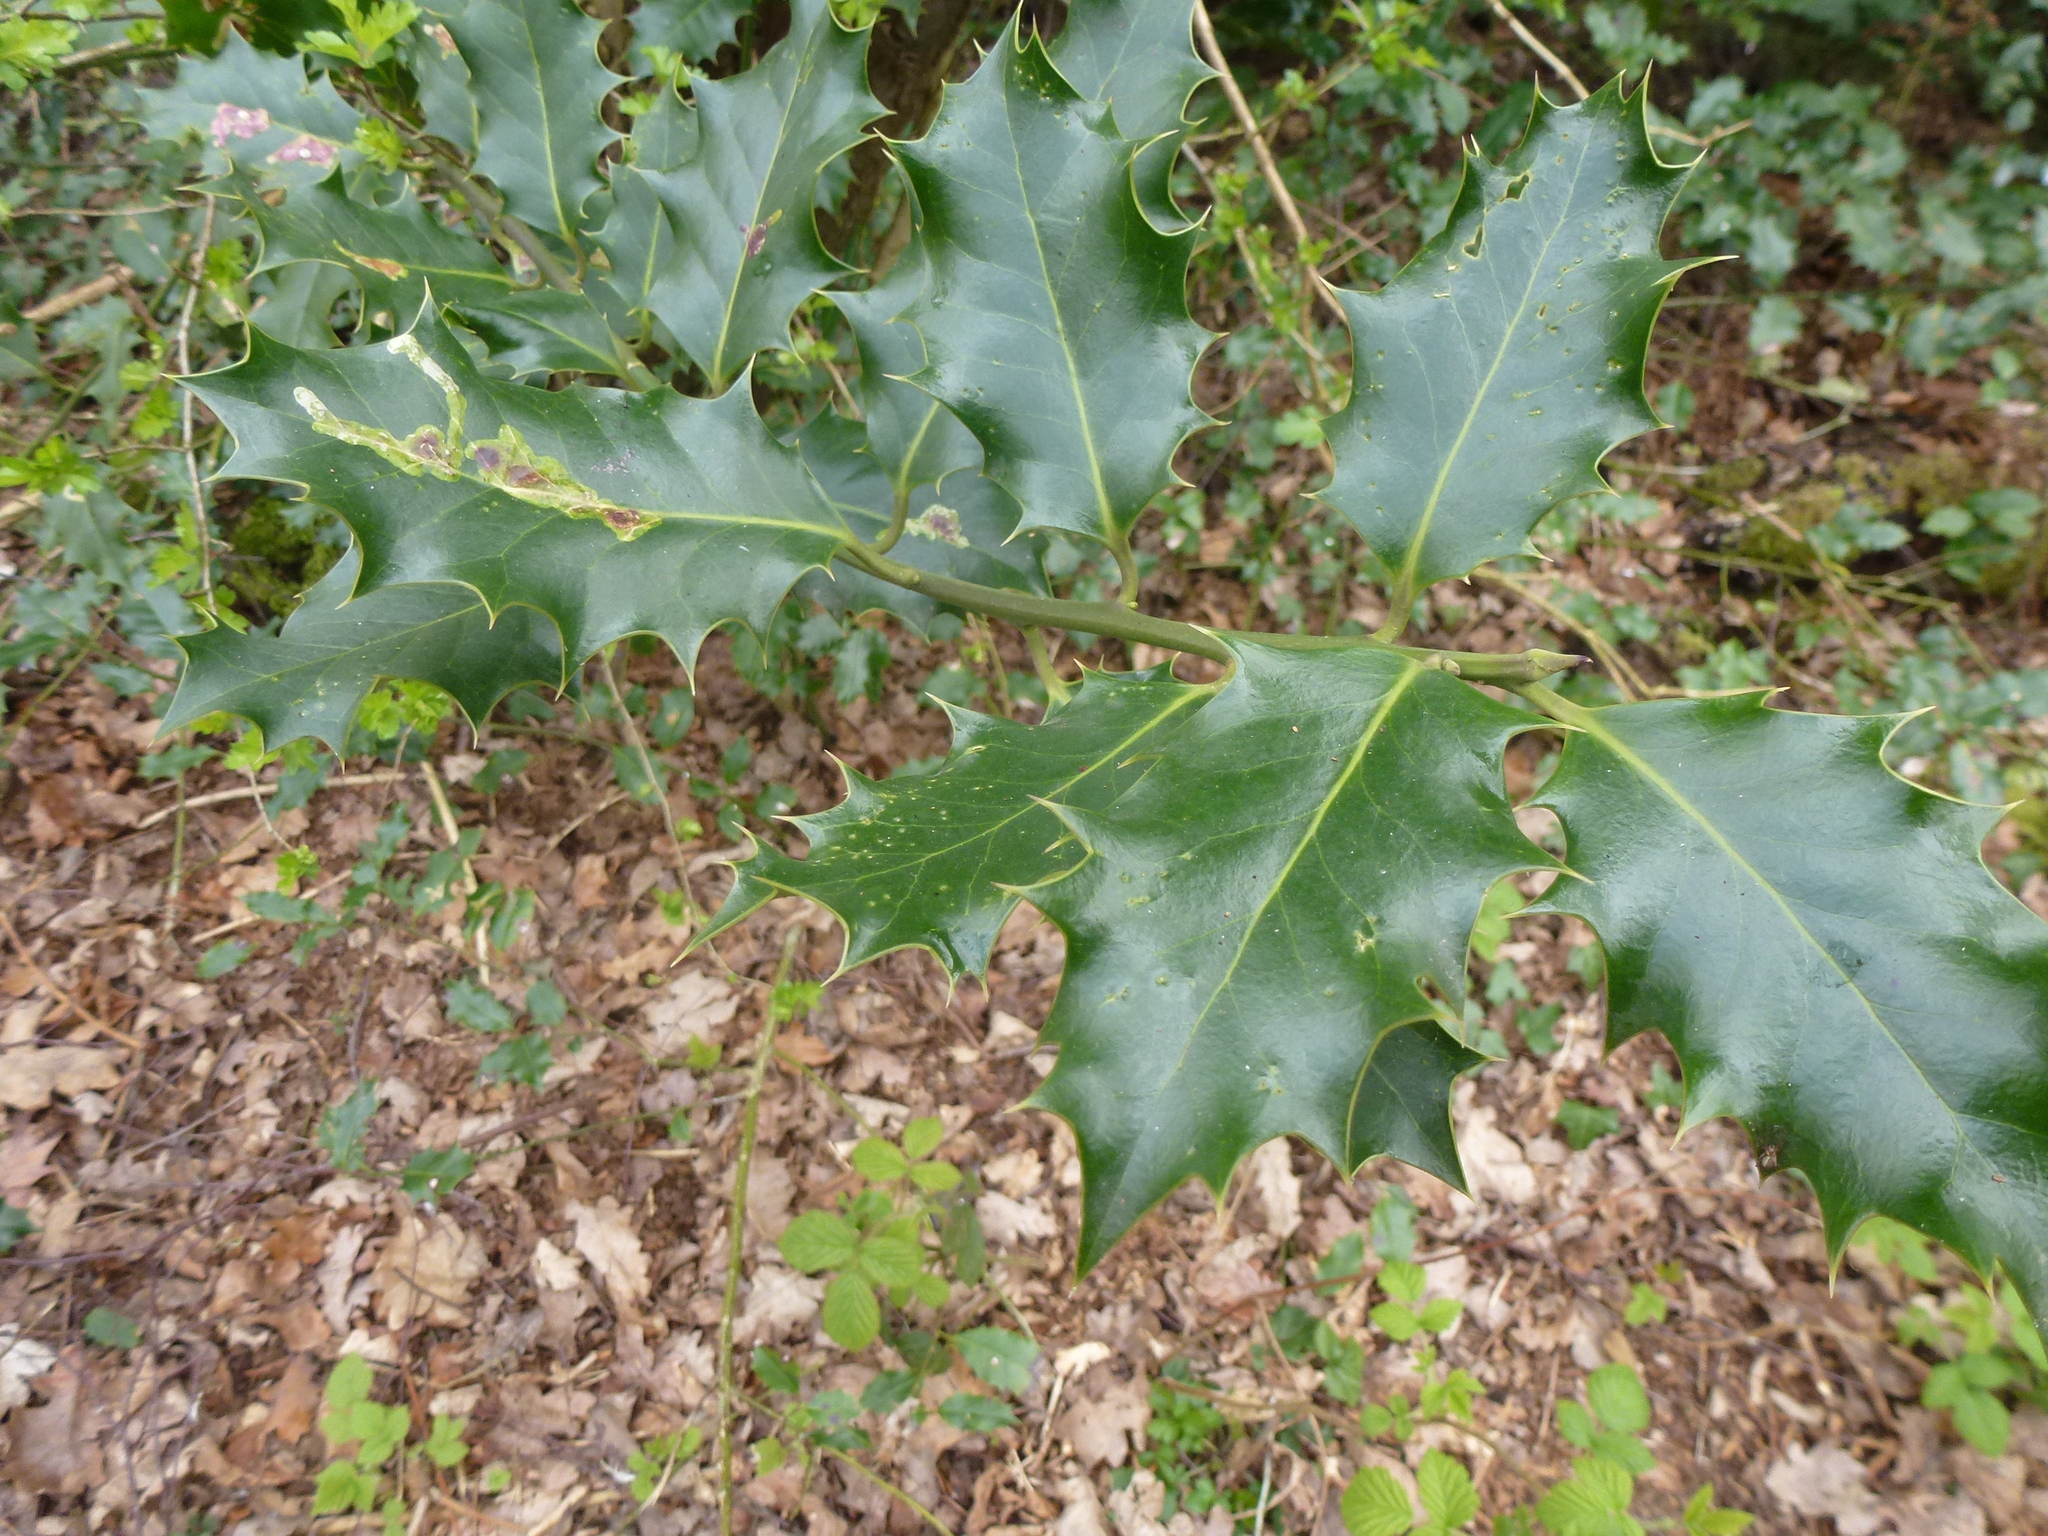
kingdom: Plantae
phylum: Tracheophyta
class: Magnoliopsida
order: Aquifoliales
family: Aquifoliaceae
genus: Ilex
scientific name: Ilex aquifolium
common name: English holly
